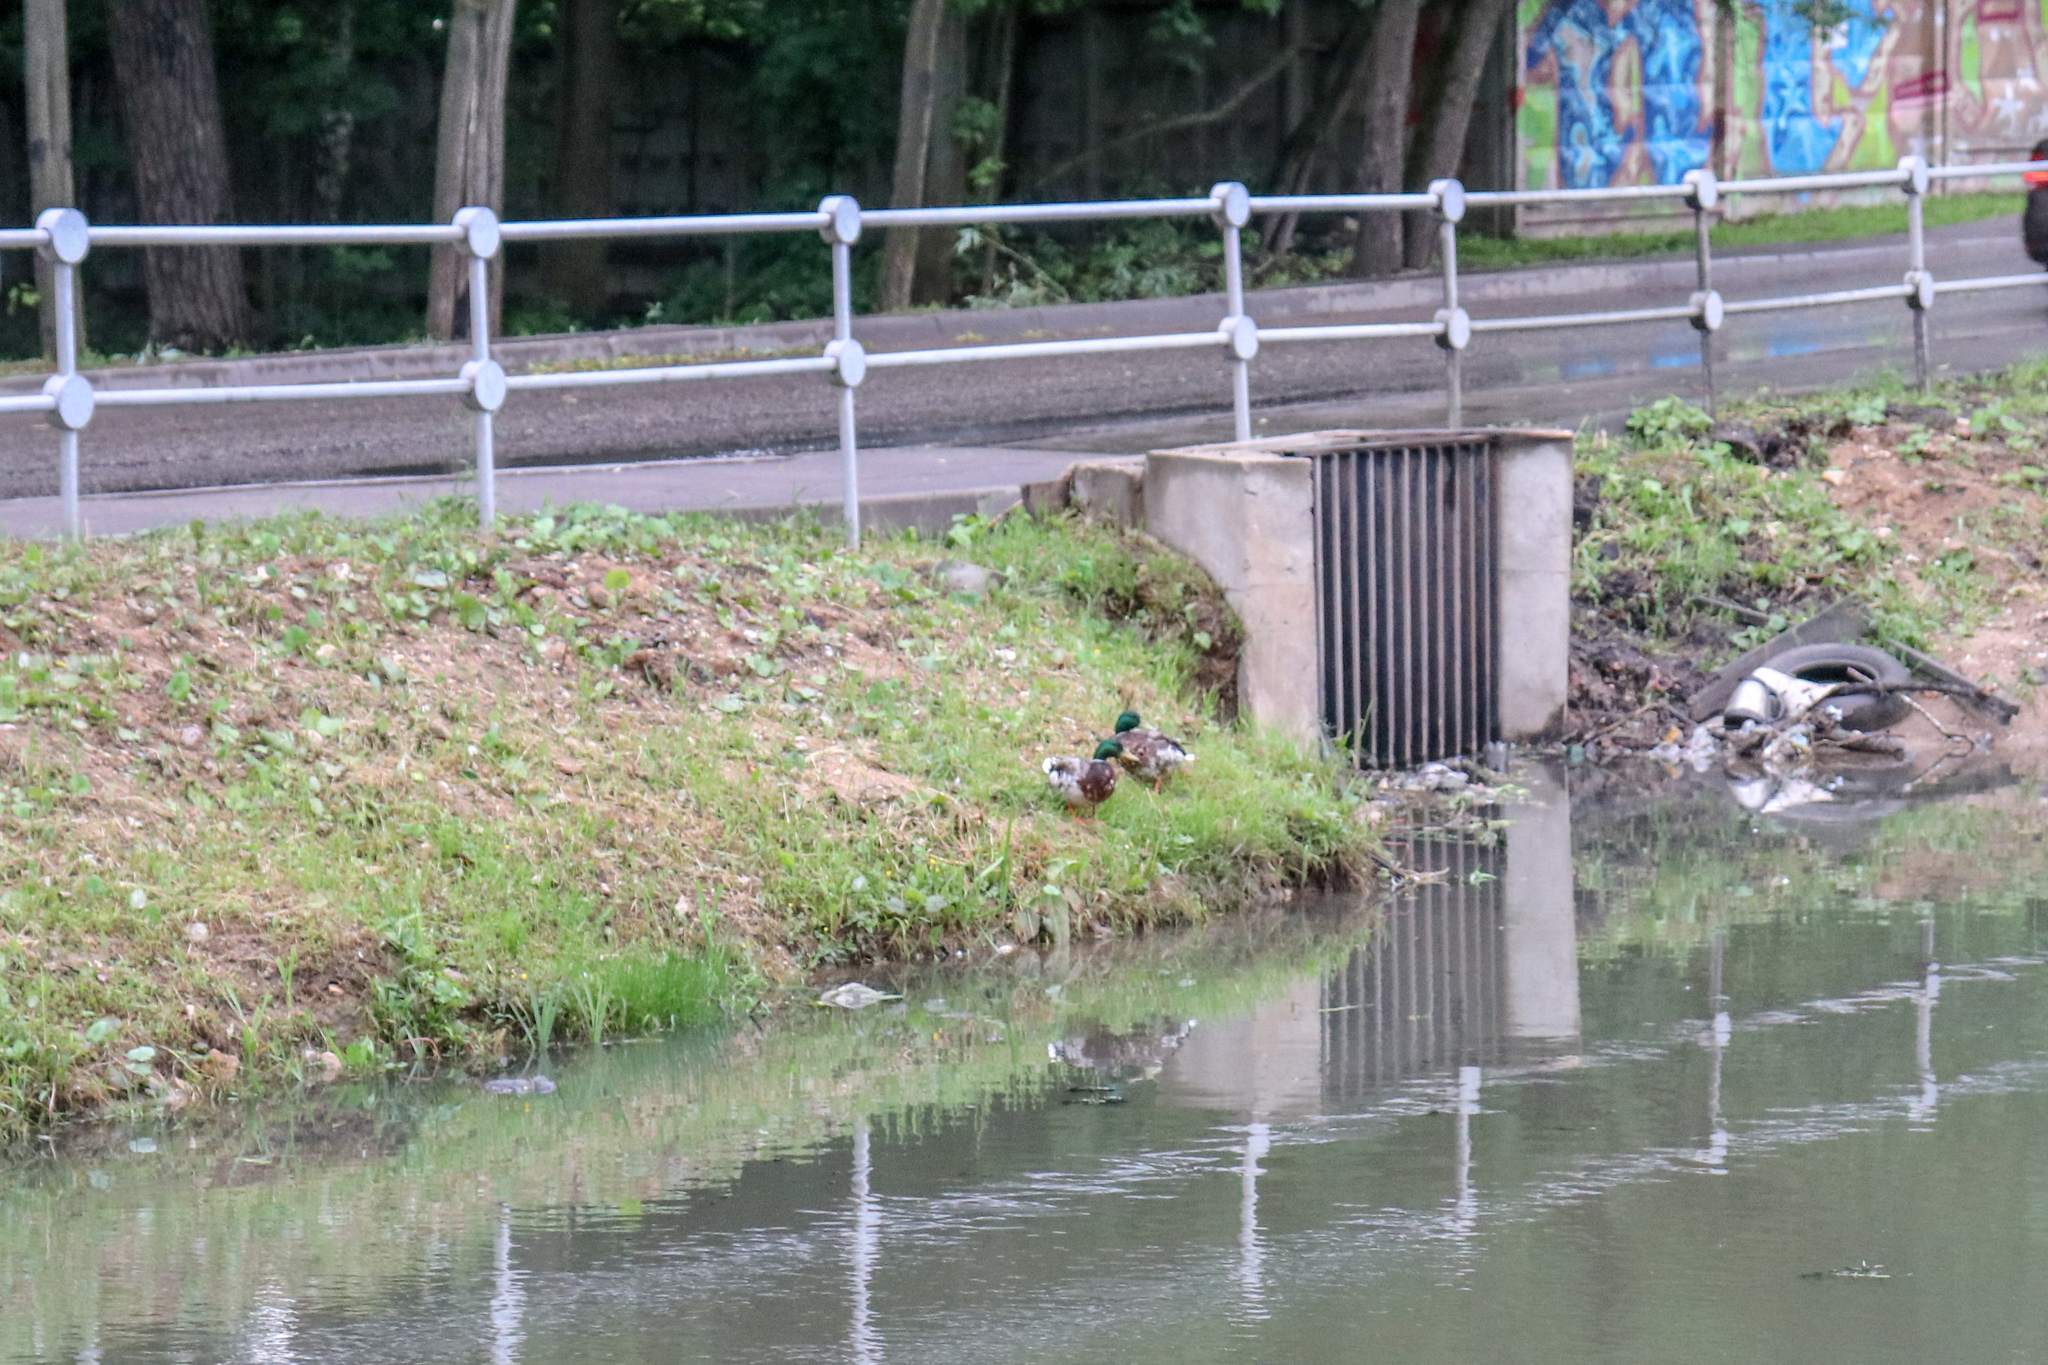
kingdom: Animalia
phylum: Chordata
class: Aves
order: Anseriformes
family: Anatidae
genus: Anas
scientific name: Anas platyrhynchos
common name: Mallard
